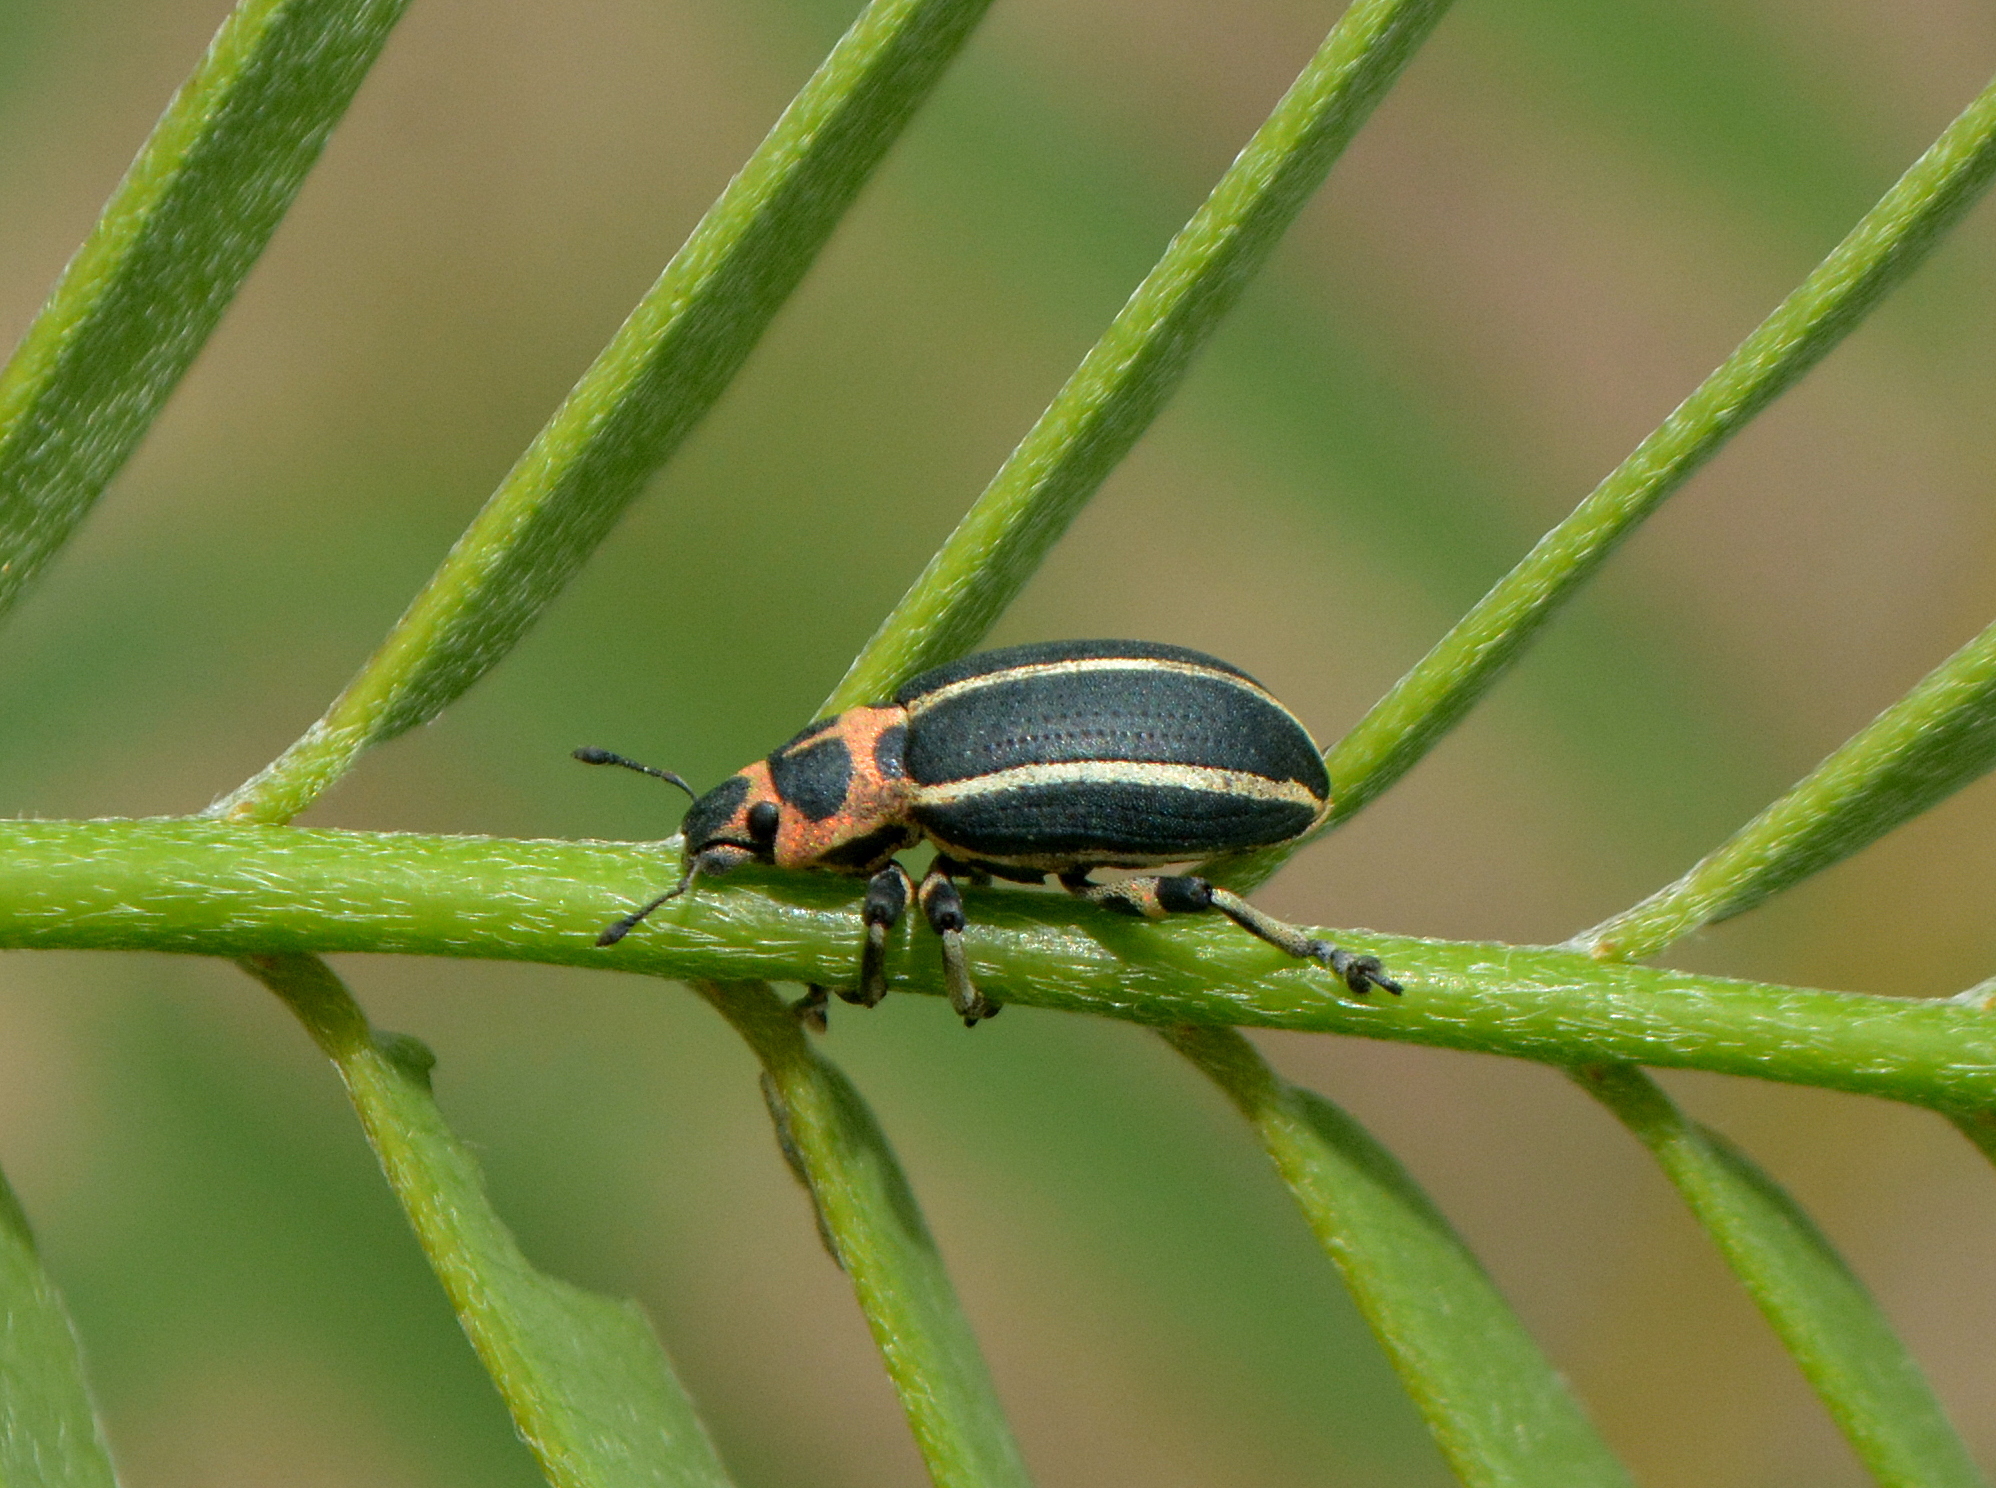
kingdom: Animalia
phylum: Arthropoda
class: Insecta
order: Coleoptera
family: Curculionidae
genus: Eudiagogus
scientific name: Eudiagogus episcopalis
